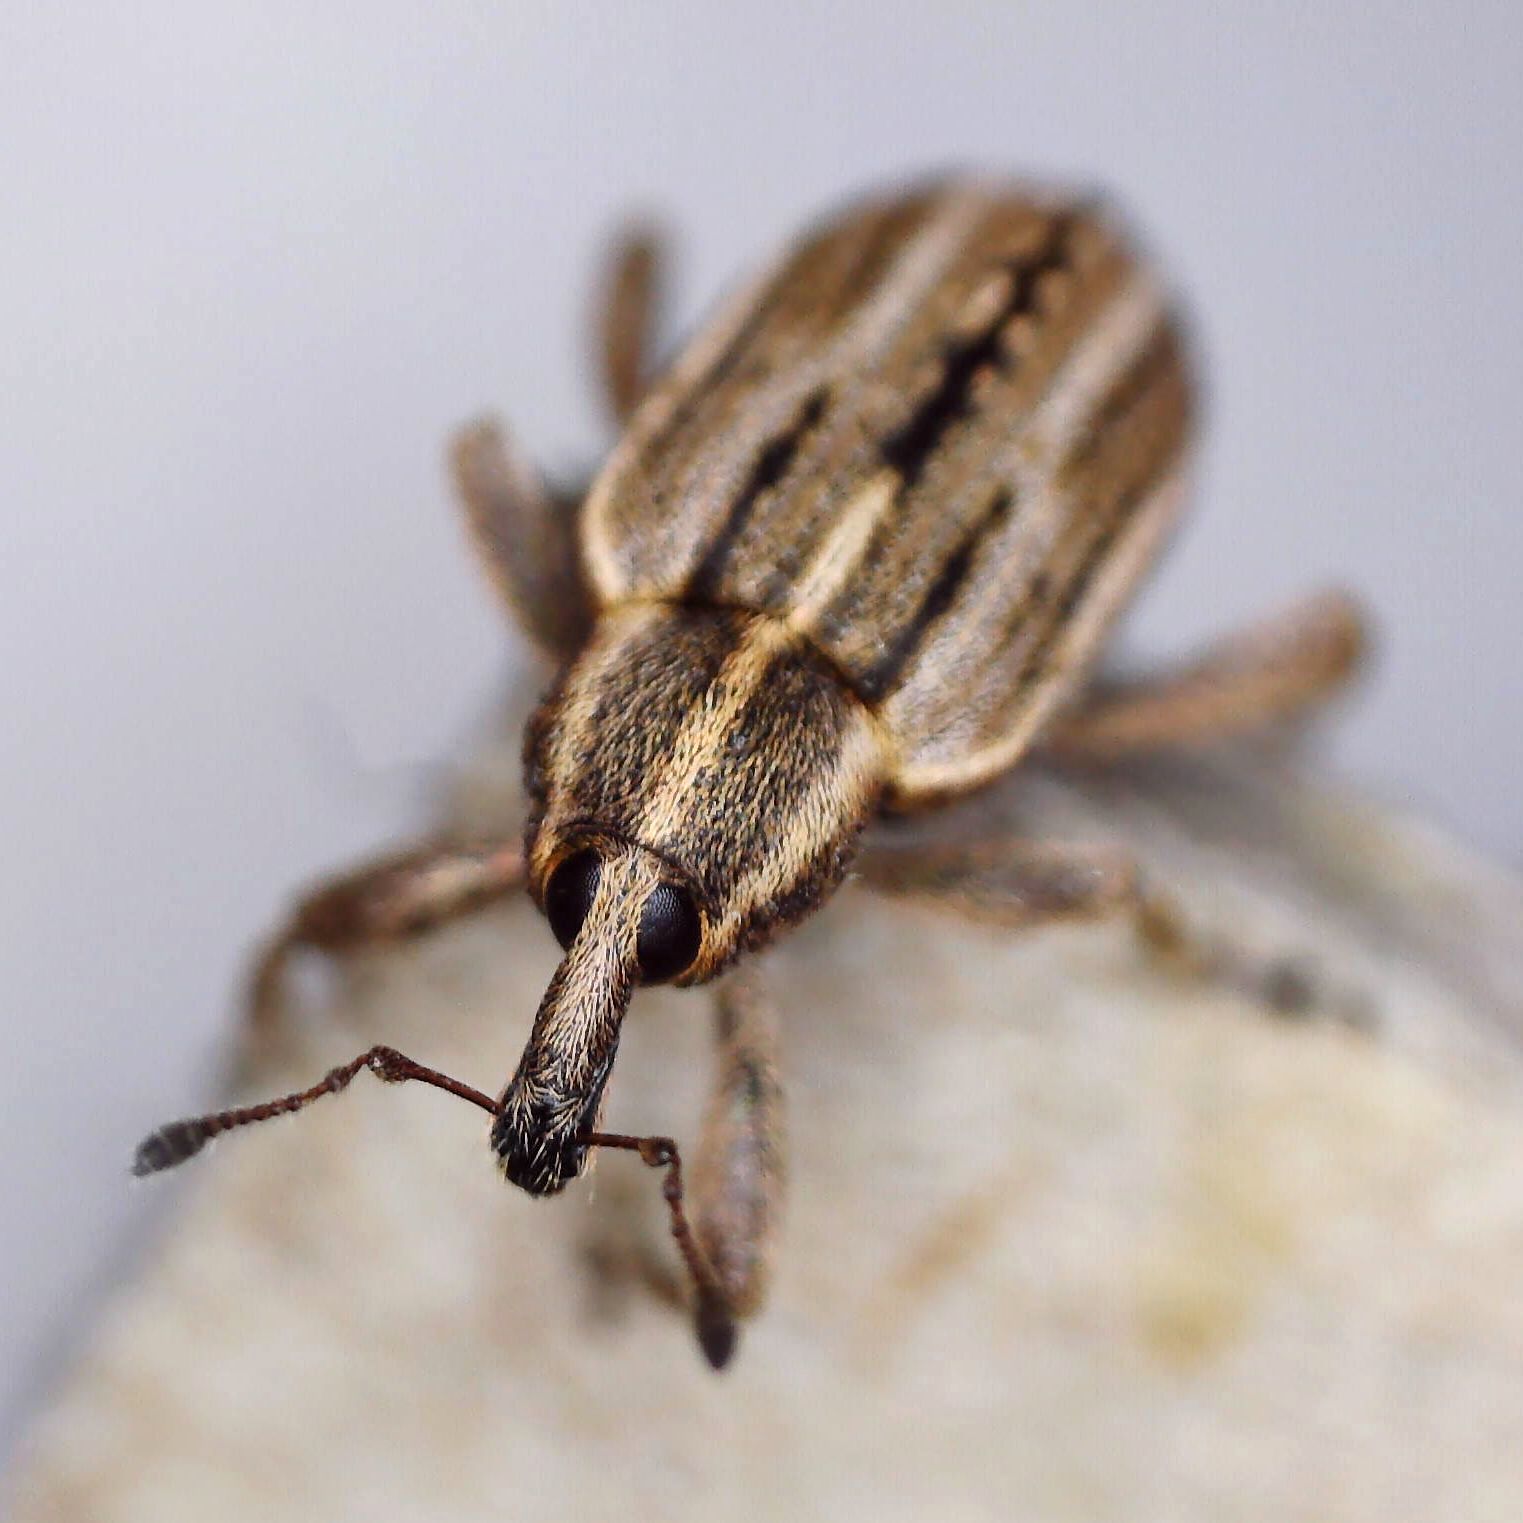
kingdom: Animalia
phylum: Arthropoda
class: Insecta
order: Coleoptera
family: Curculionidae
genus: Hypera
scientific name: Hypera arator
